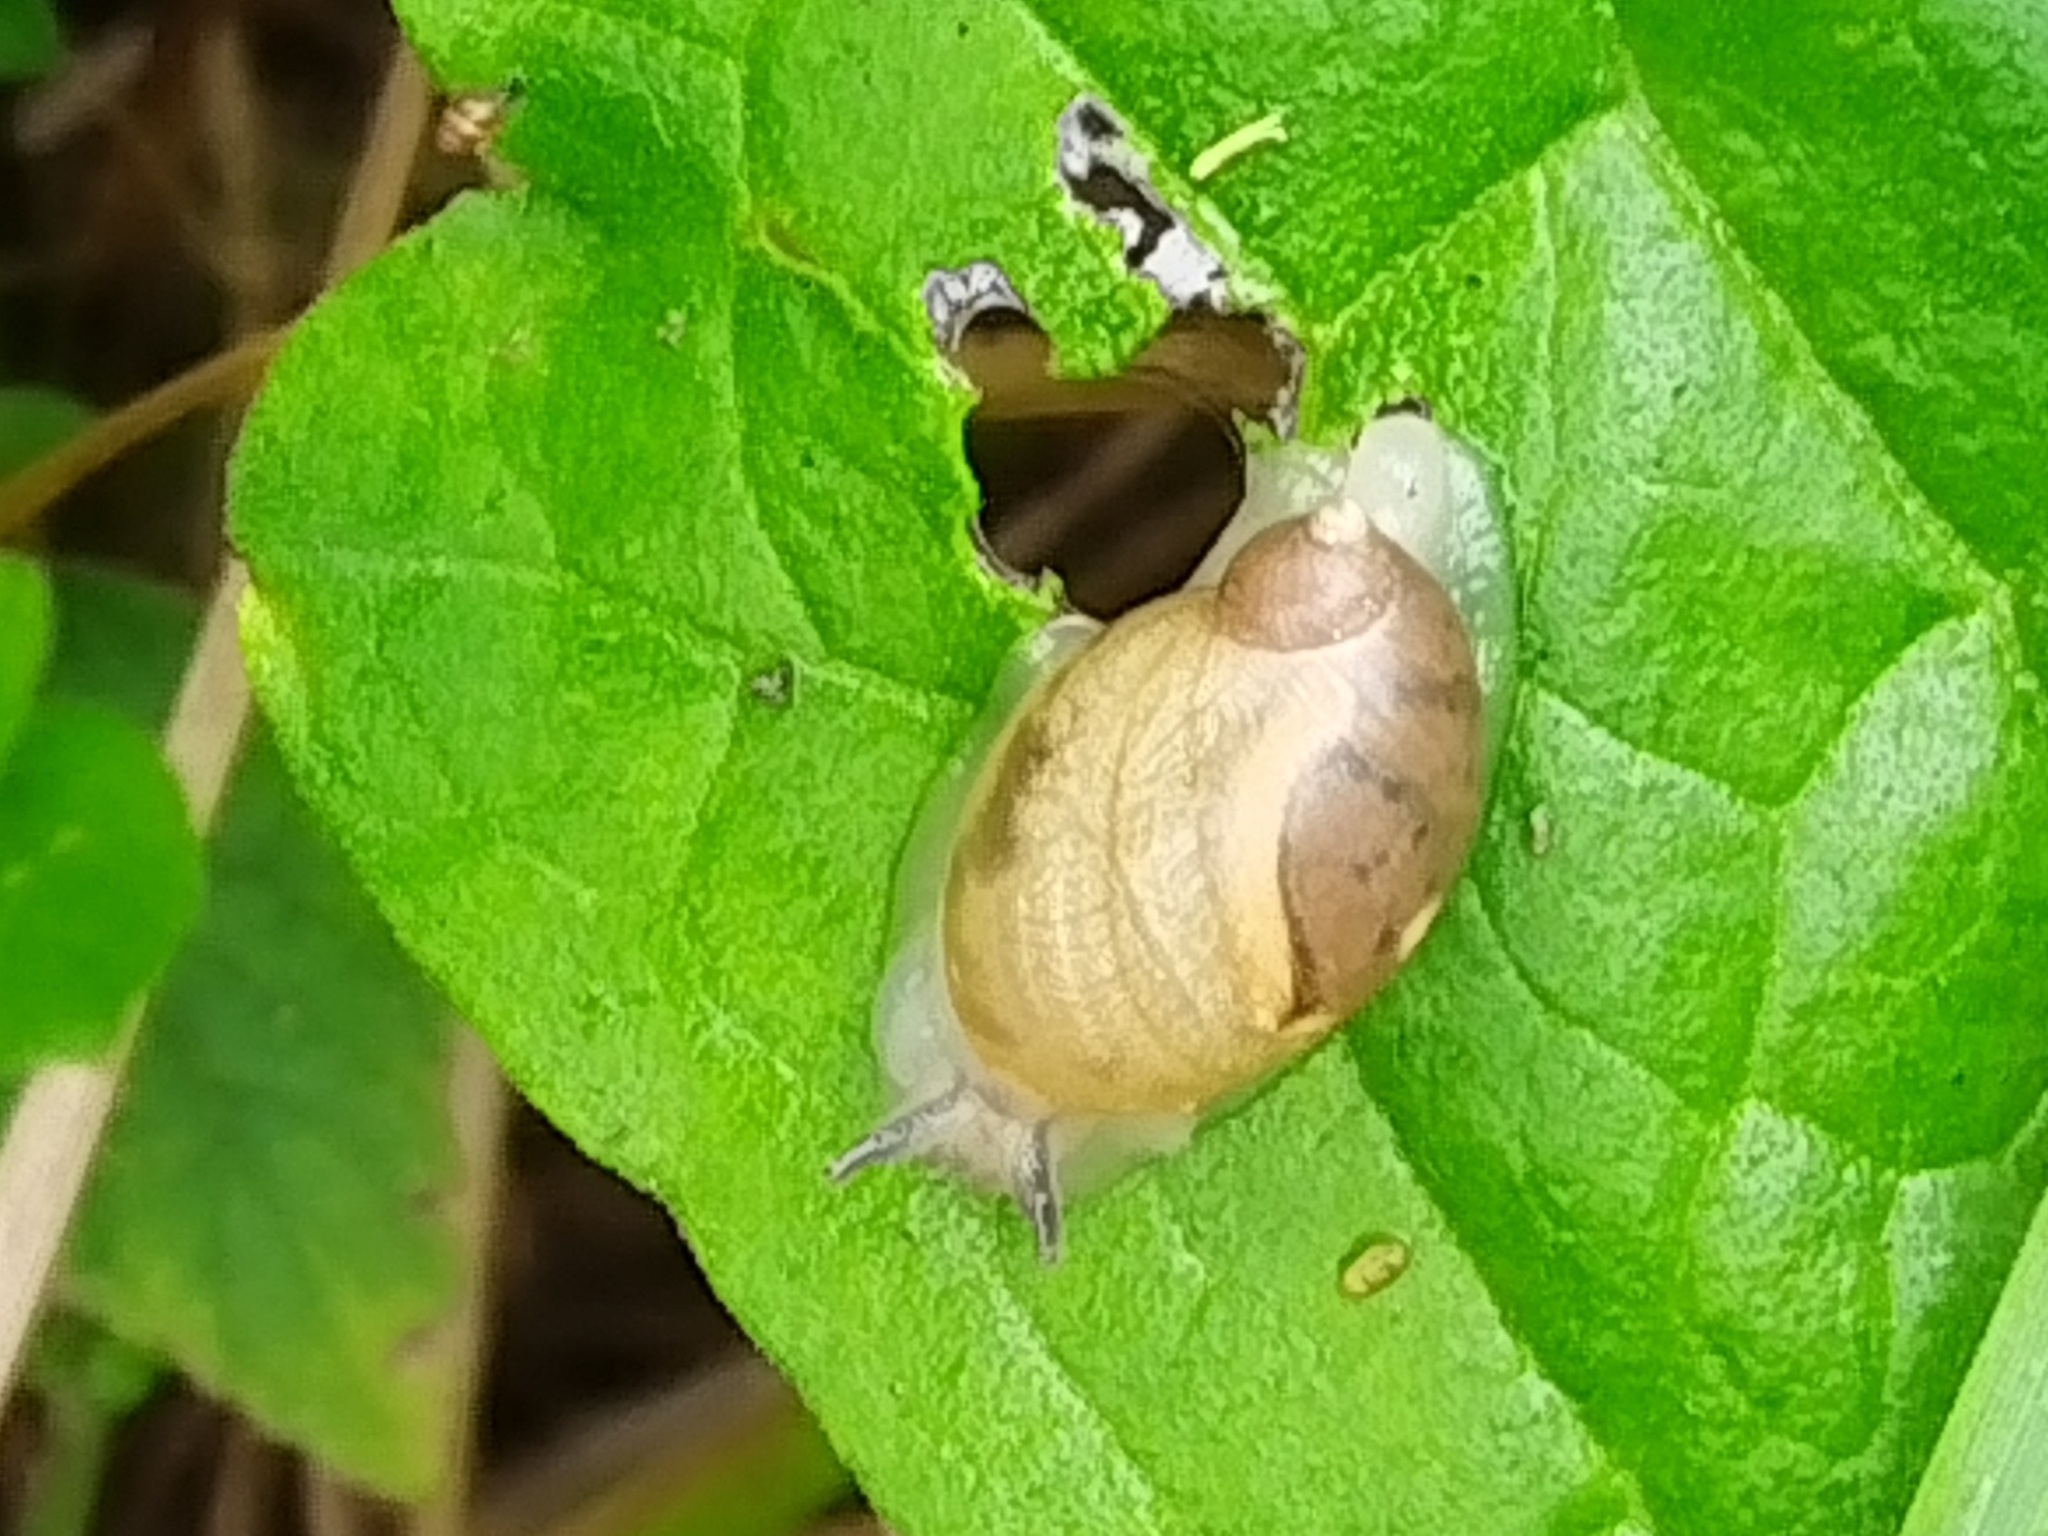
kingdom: Animalia
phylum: Mollusca
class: Gastropoda
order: Stylommatophora
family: Succineidae
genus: Succinea
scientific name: Succinea lauta
